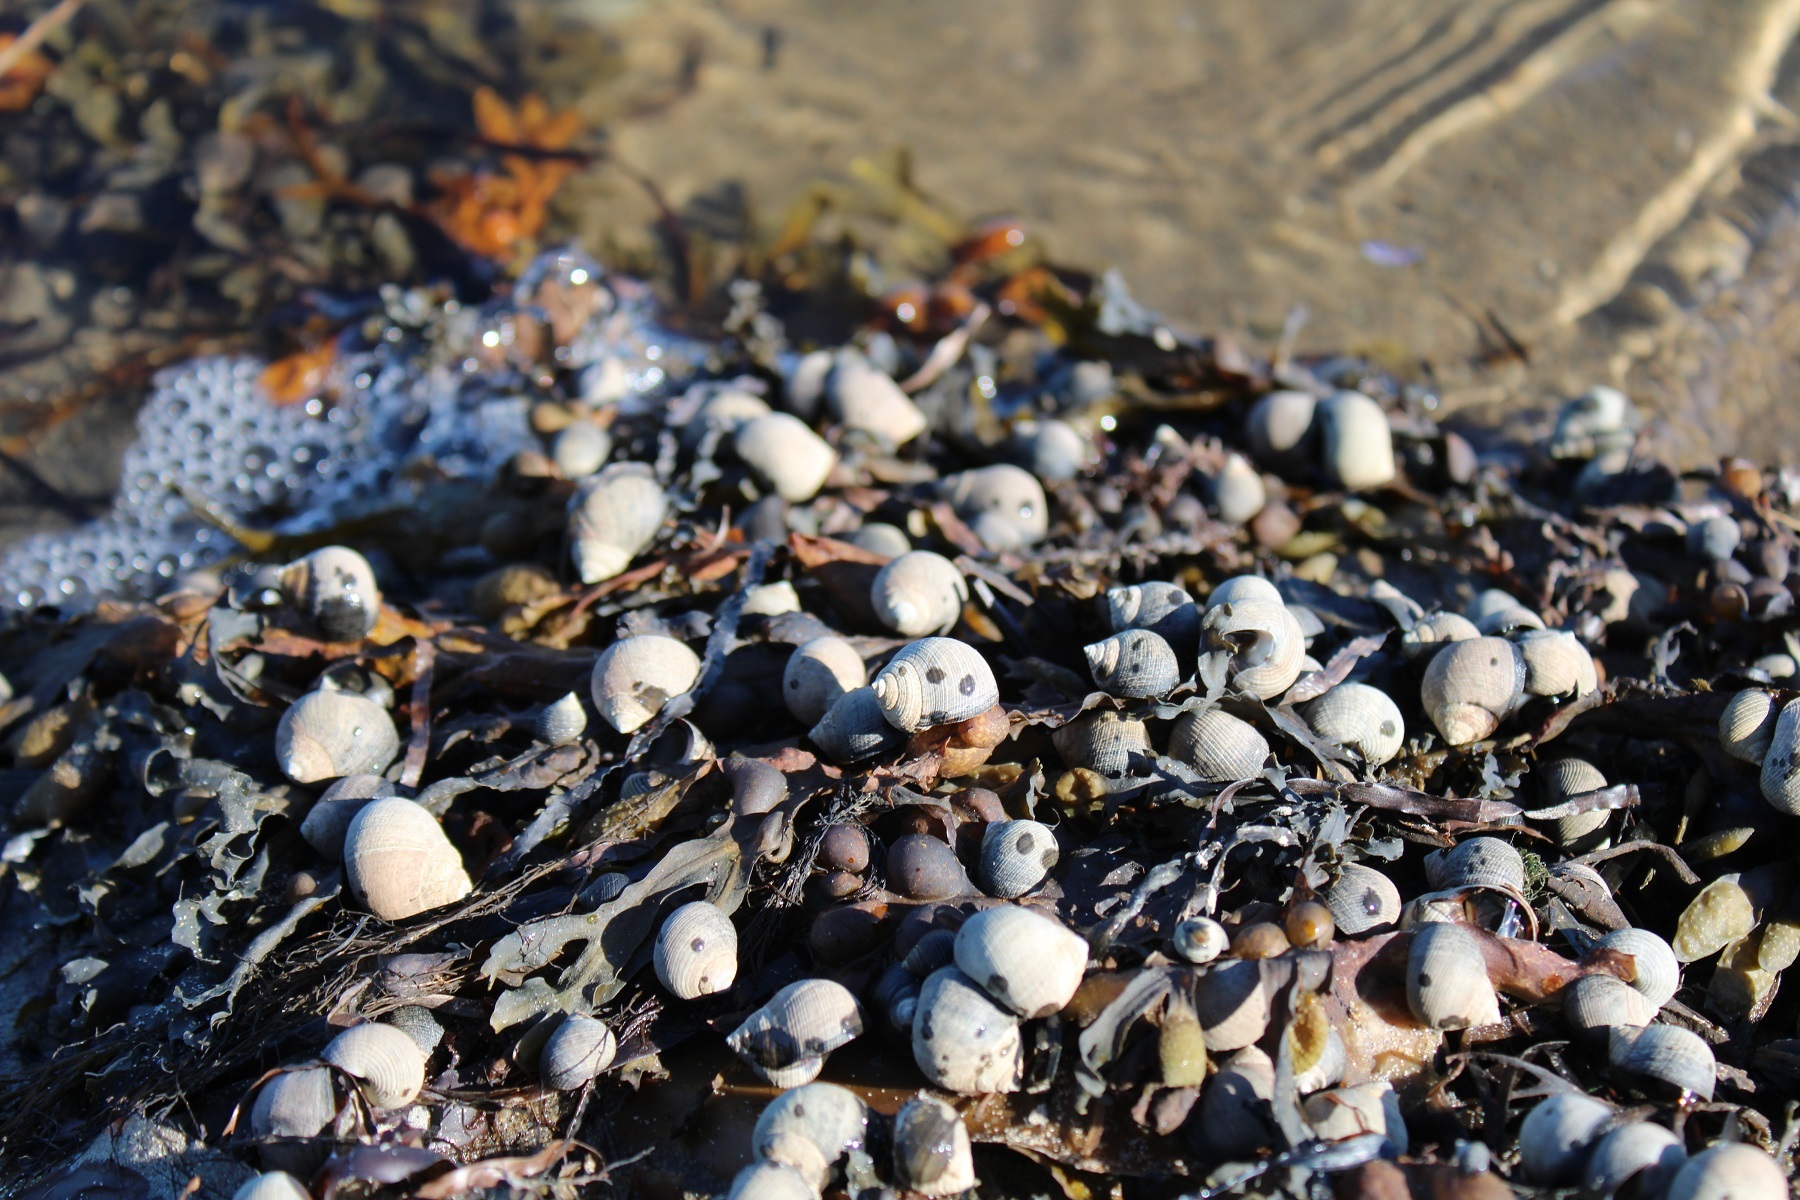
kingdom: Animalia
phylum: Mollusca
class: Gastropoda
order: Littorinimorpha
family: Littorinidae
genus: Littorina
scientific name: Littorina littorea
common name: Common periwinkle
